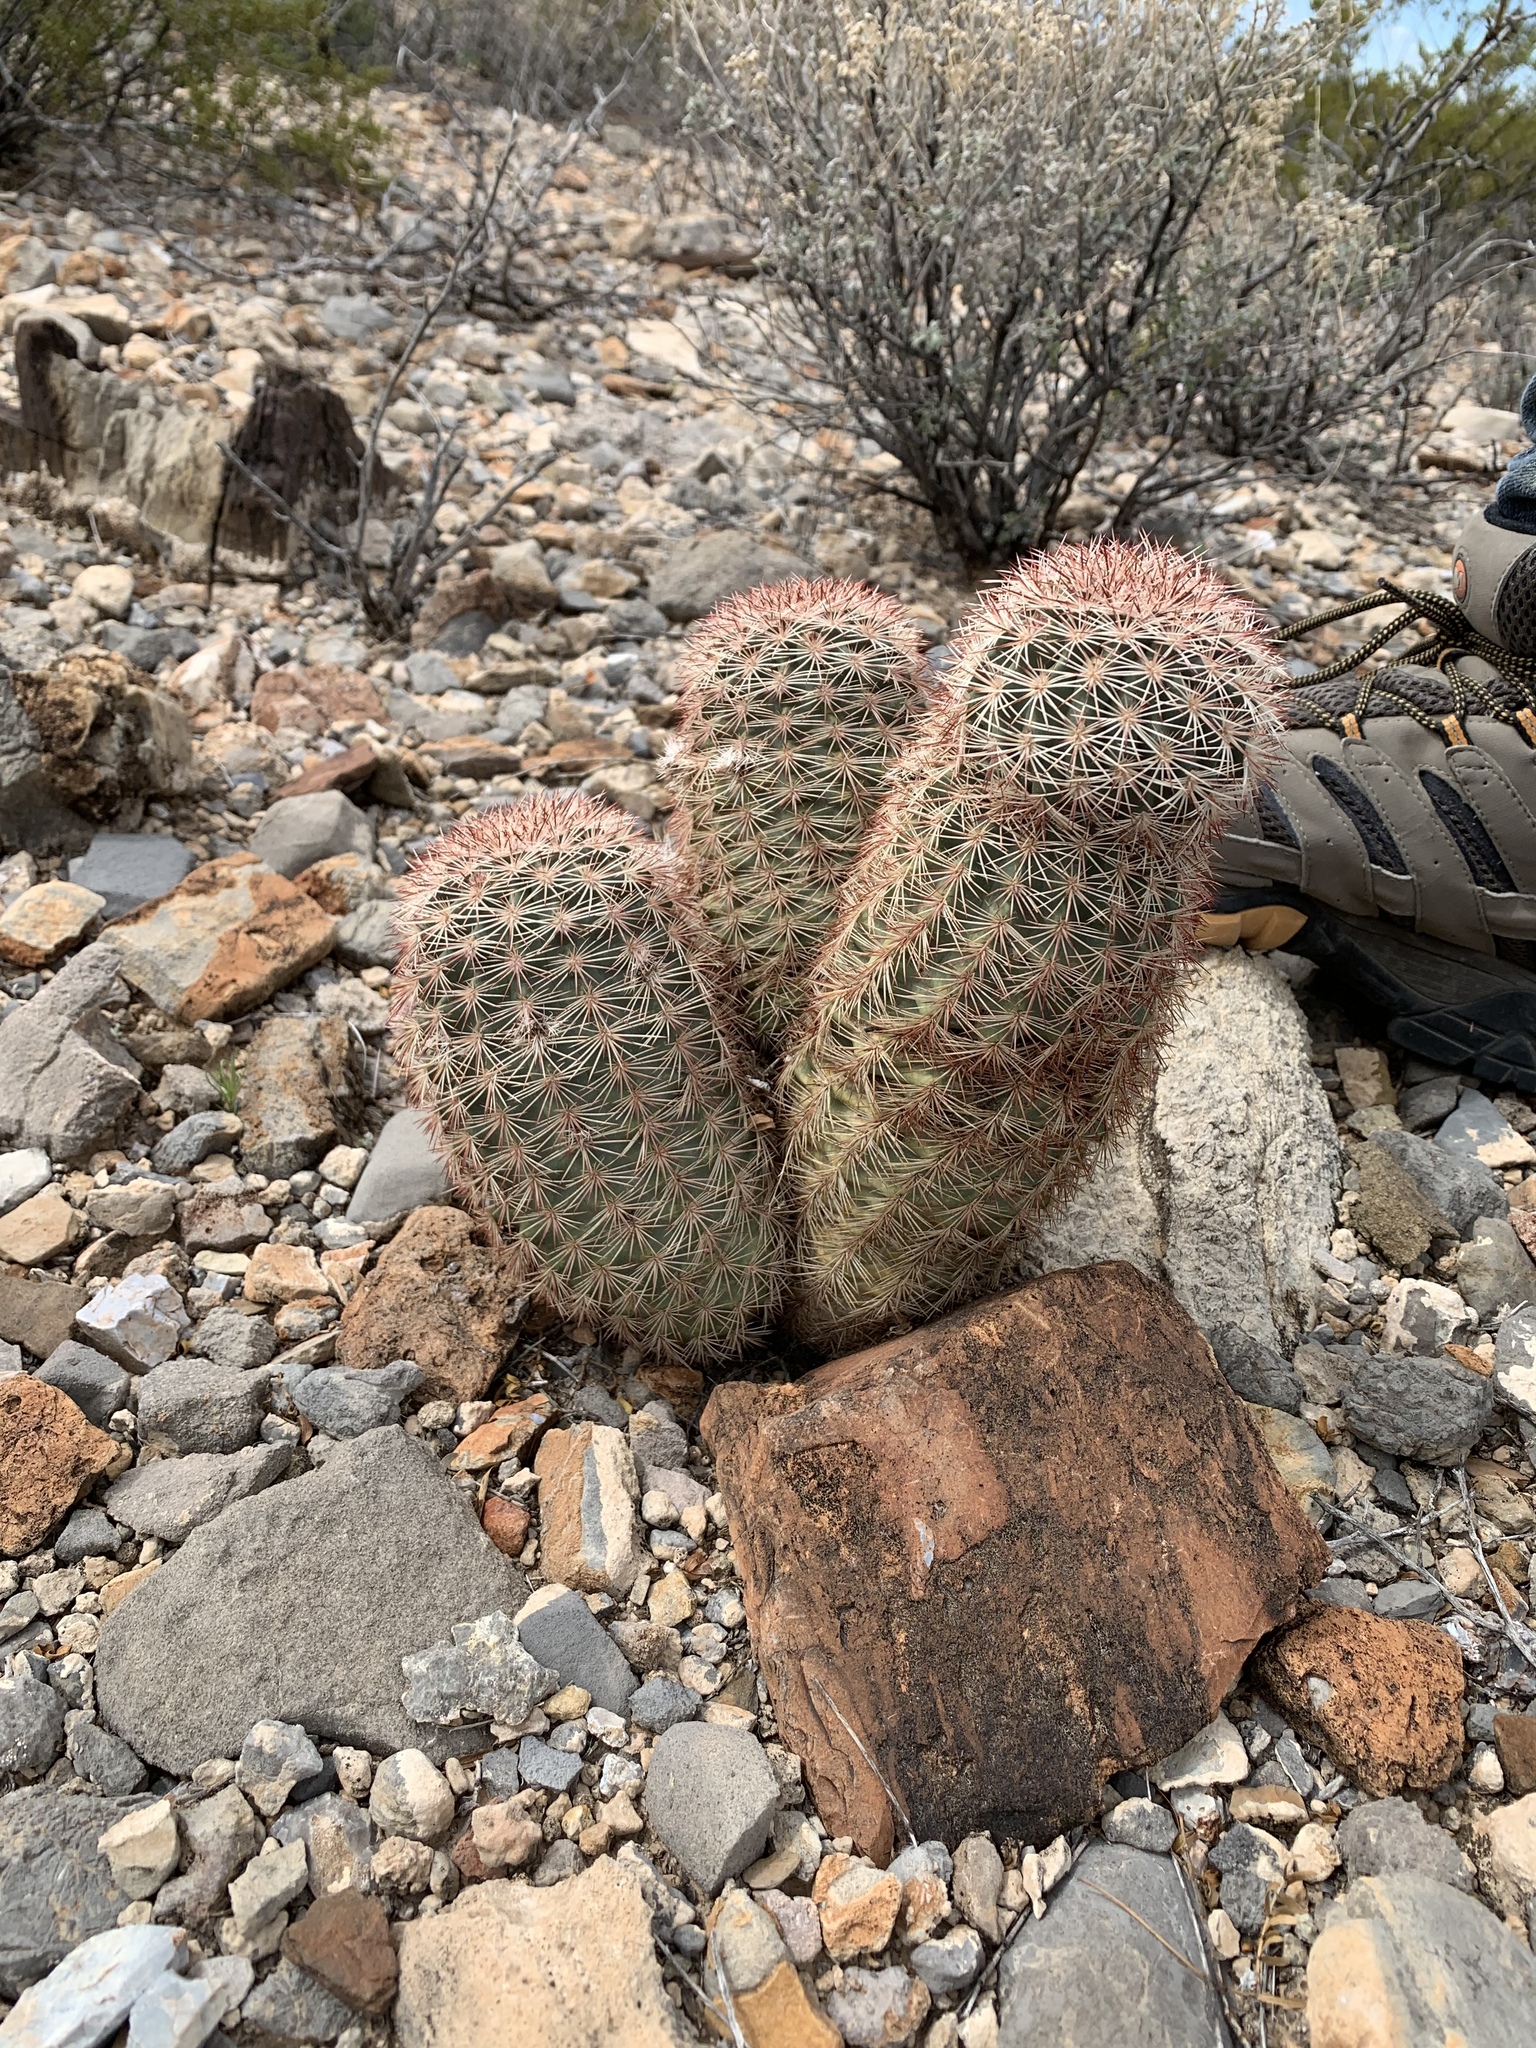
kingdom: Plantae
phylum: Tracheophyta
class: Magnoliopsida
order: Caryophyllales
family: Cactaceae
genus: Echinocereus
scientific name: Echinocereus dasyacanthus
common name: Spiny hedgehog cactus
